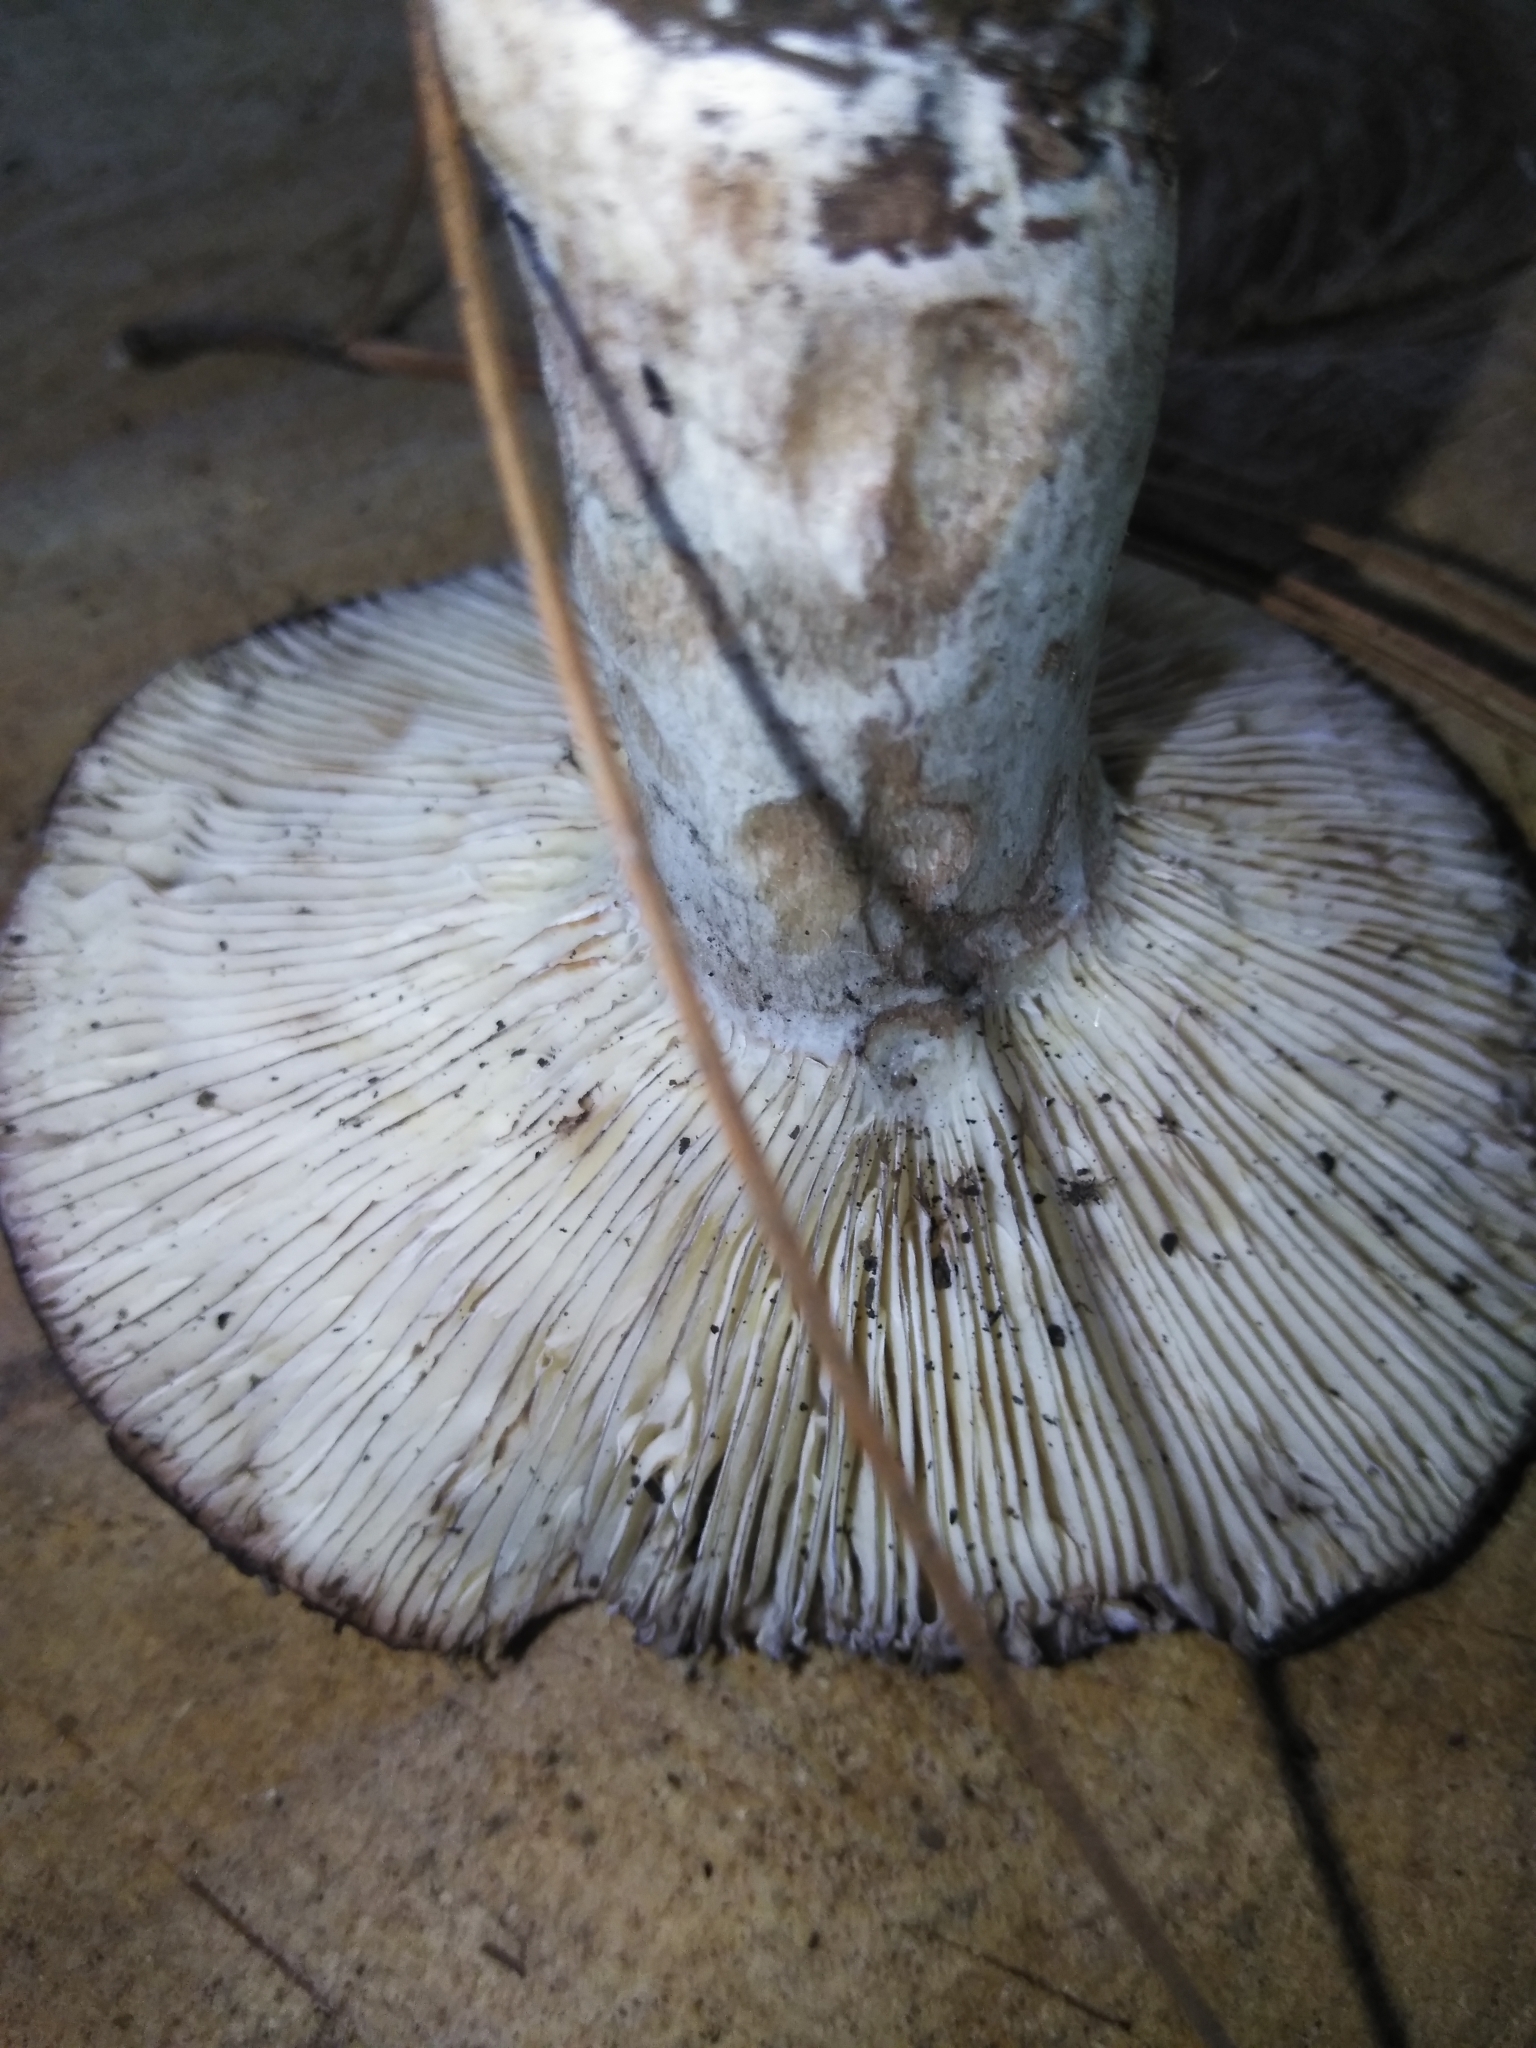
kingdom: Fungi
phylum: Basidiomycota
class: Agaricomycetes
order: Russulales
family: Russulaceae
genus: Russula
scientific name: Russula adusta
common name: Winecork brittlegill
